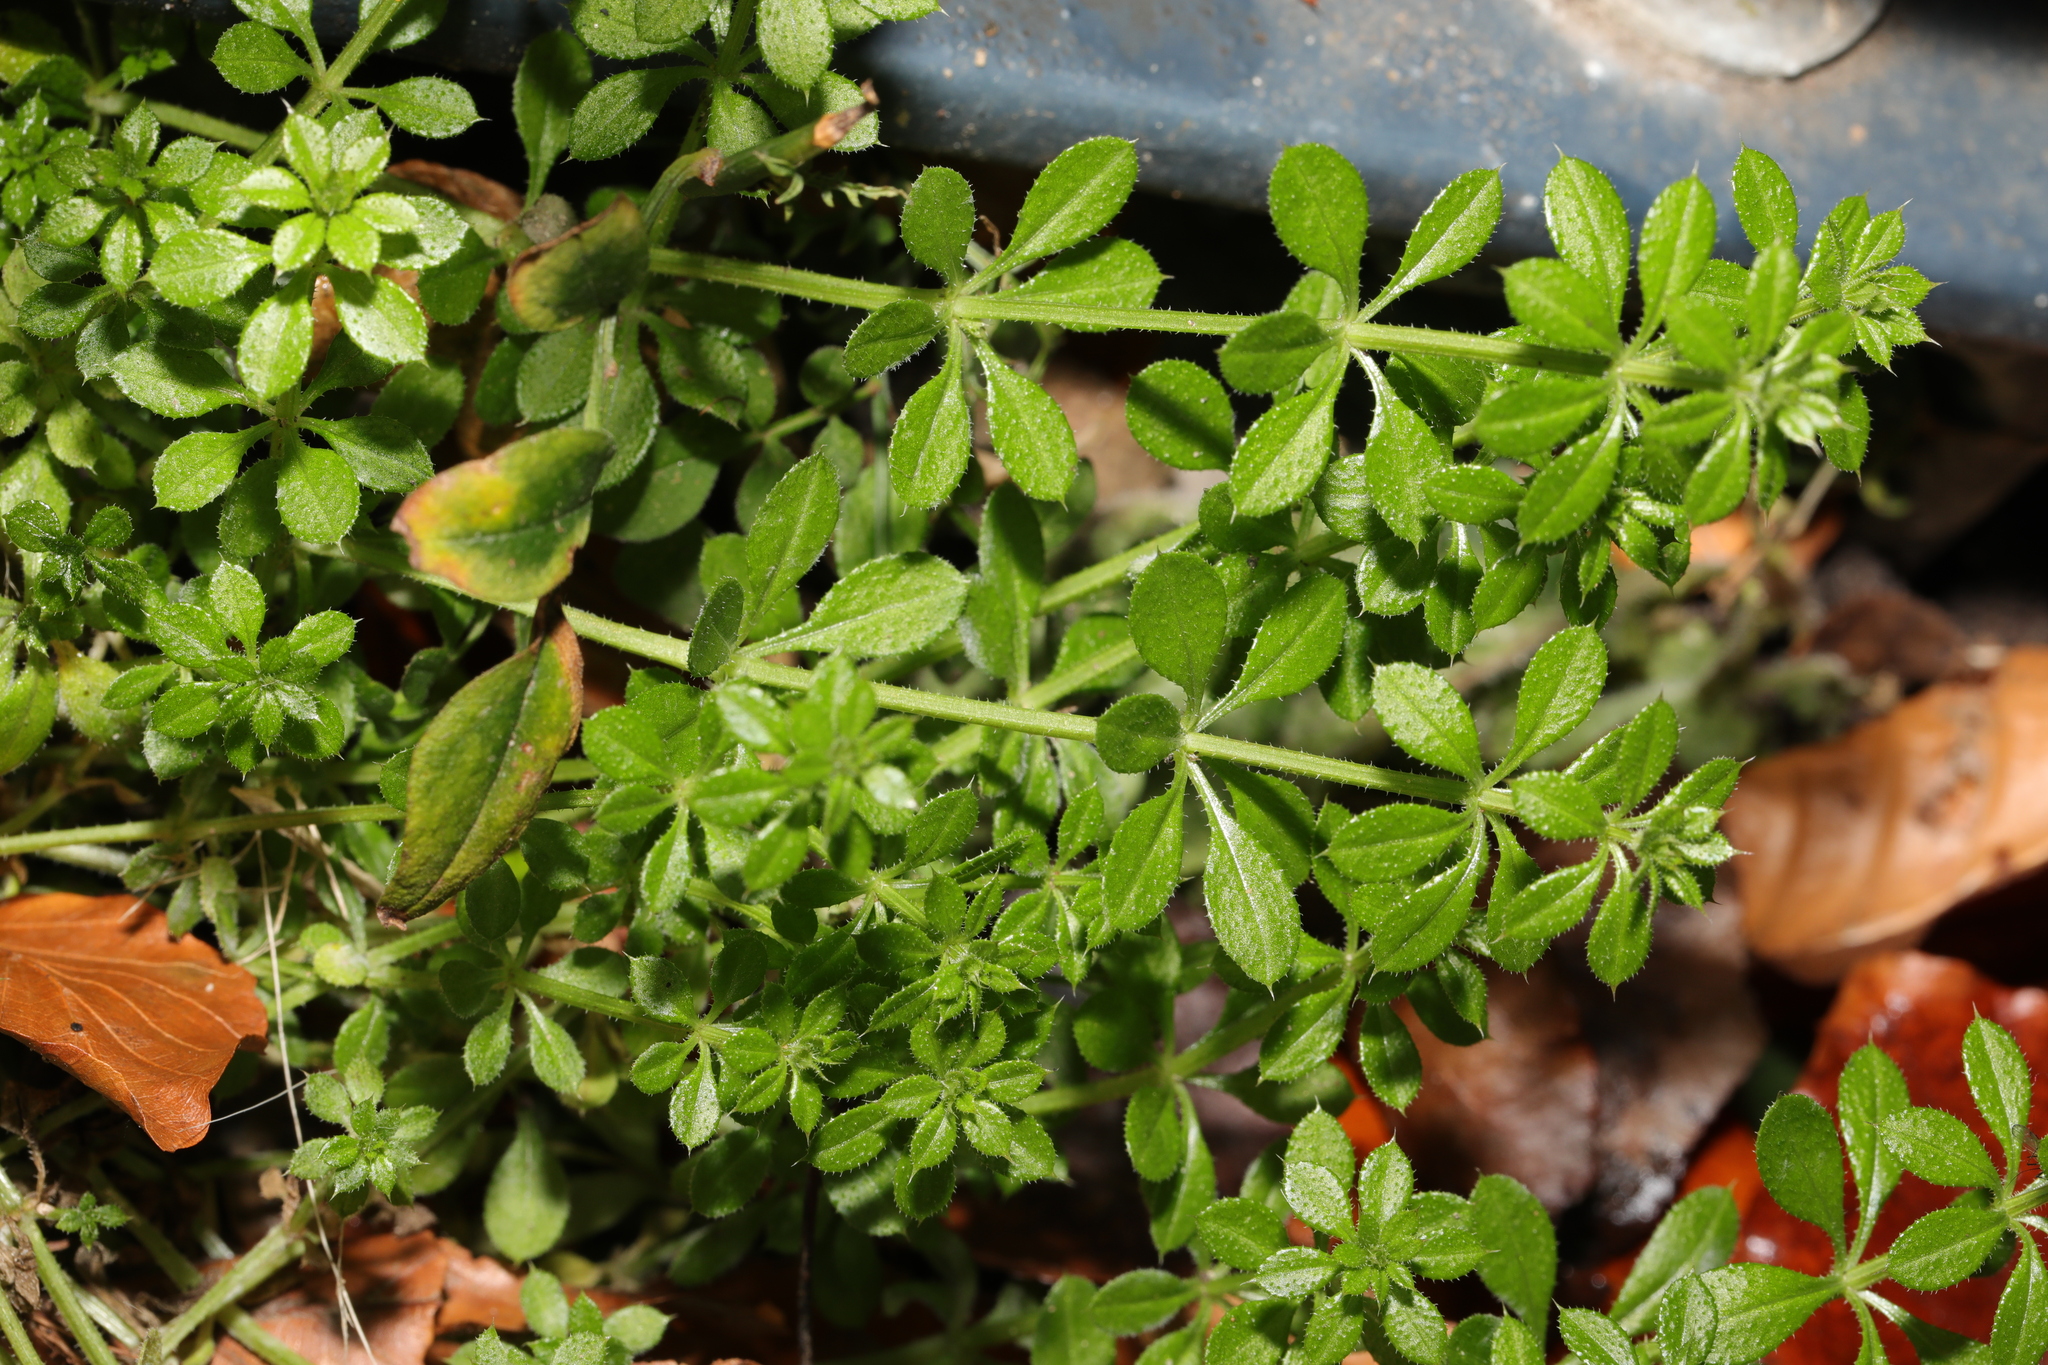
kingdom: Plantae
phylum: Tracheophyta
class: Magnoliopsida
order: Gentianales
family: Rubiaceae
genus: Galium
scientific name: Galium aparine
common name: Cleavers
